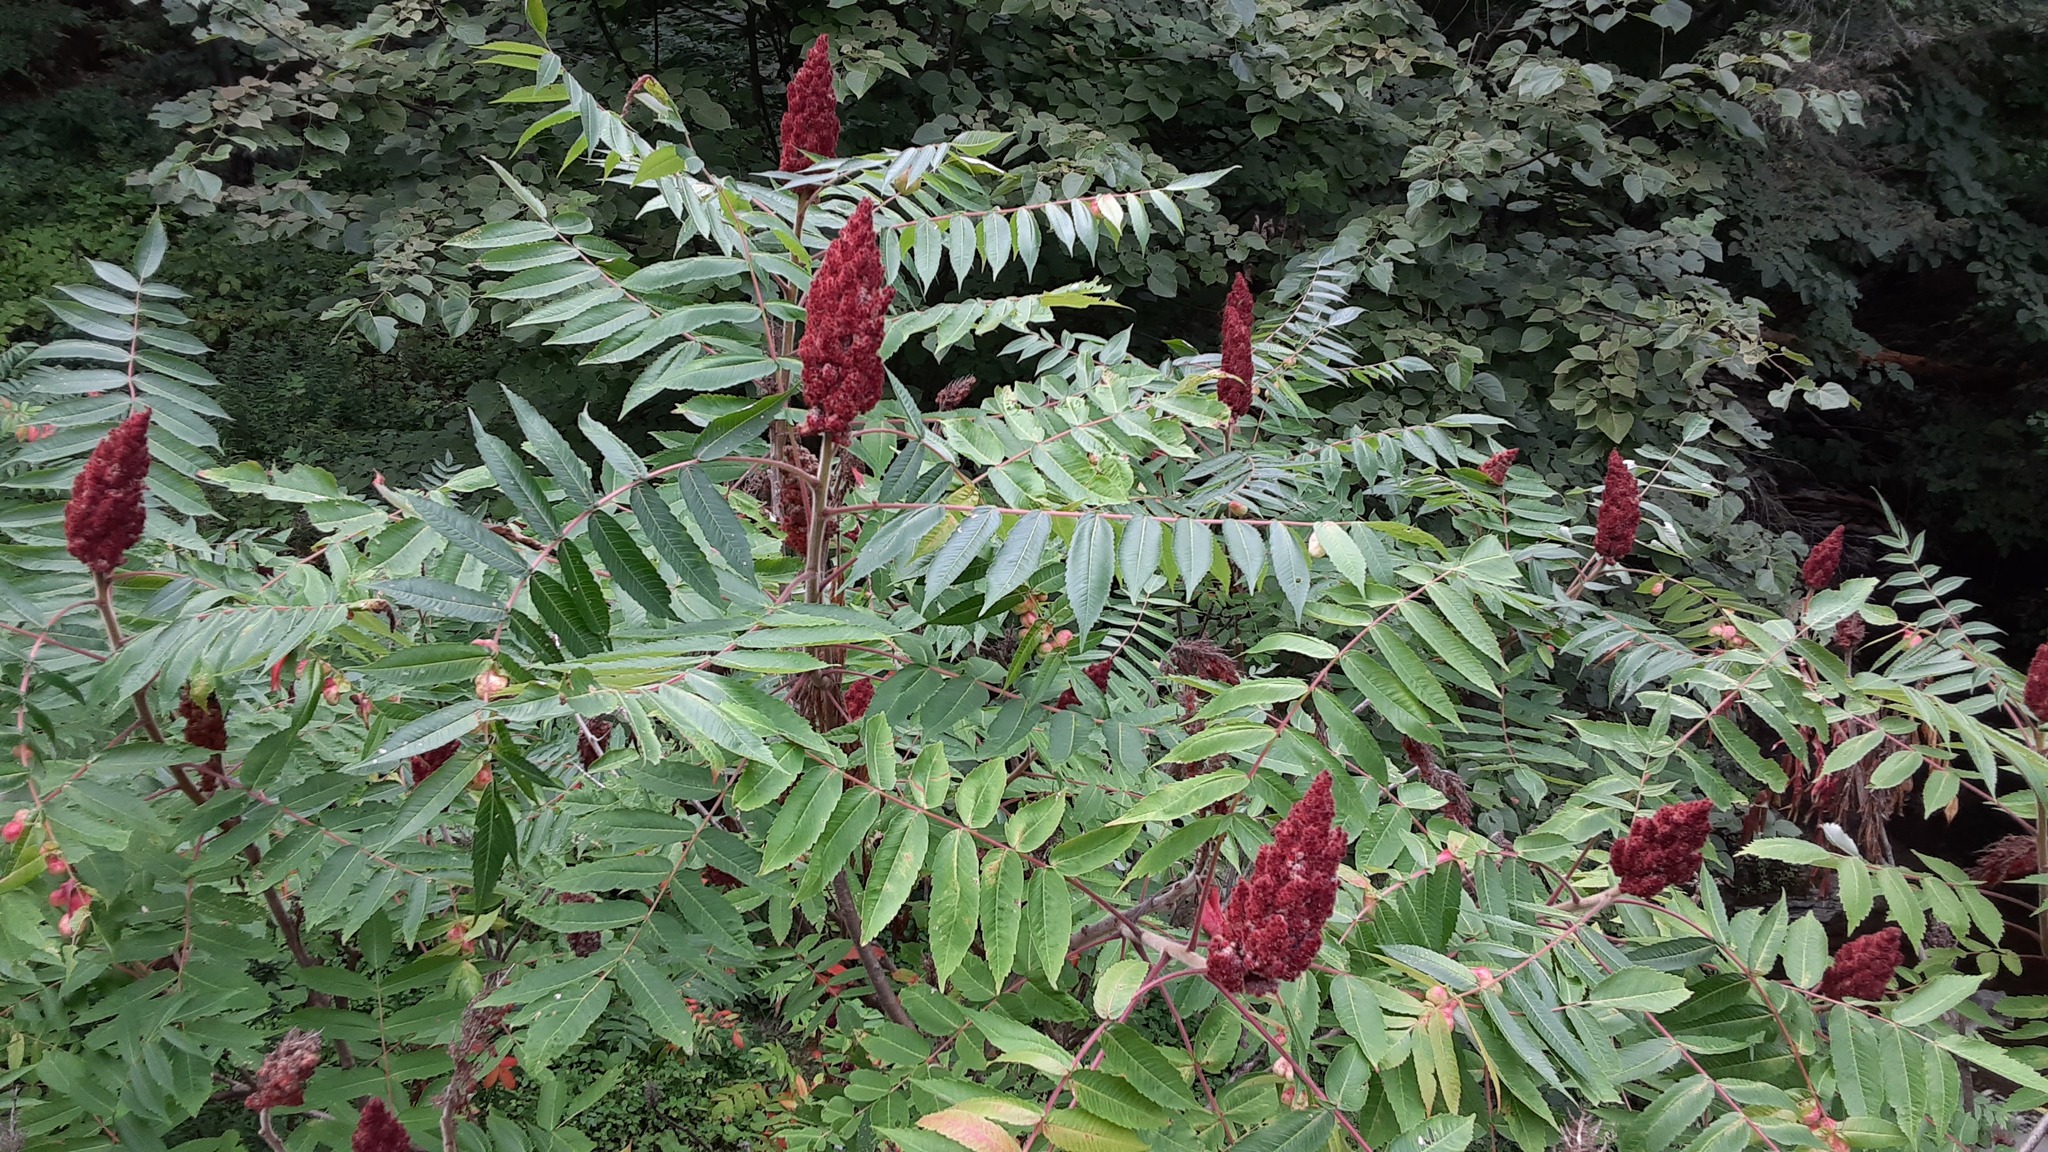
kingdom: Plantae
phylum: Tracheophyta
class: Magnoliopsida
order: Sapindales
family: Anacardiaceae
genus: Rhus
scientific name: Rhus typhina
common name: Staghorn sumac
